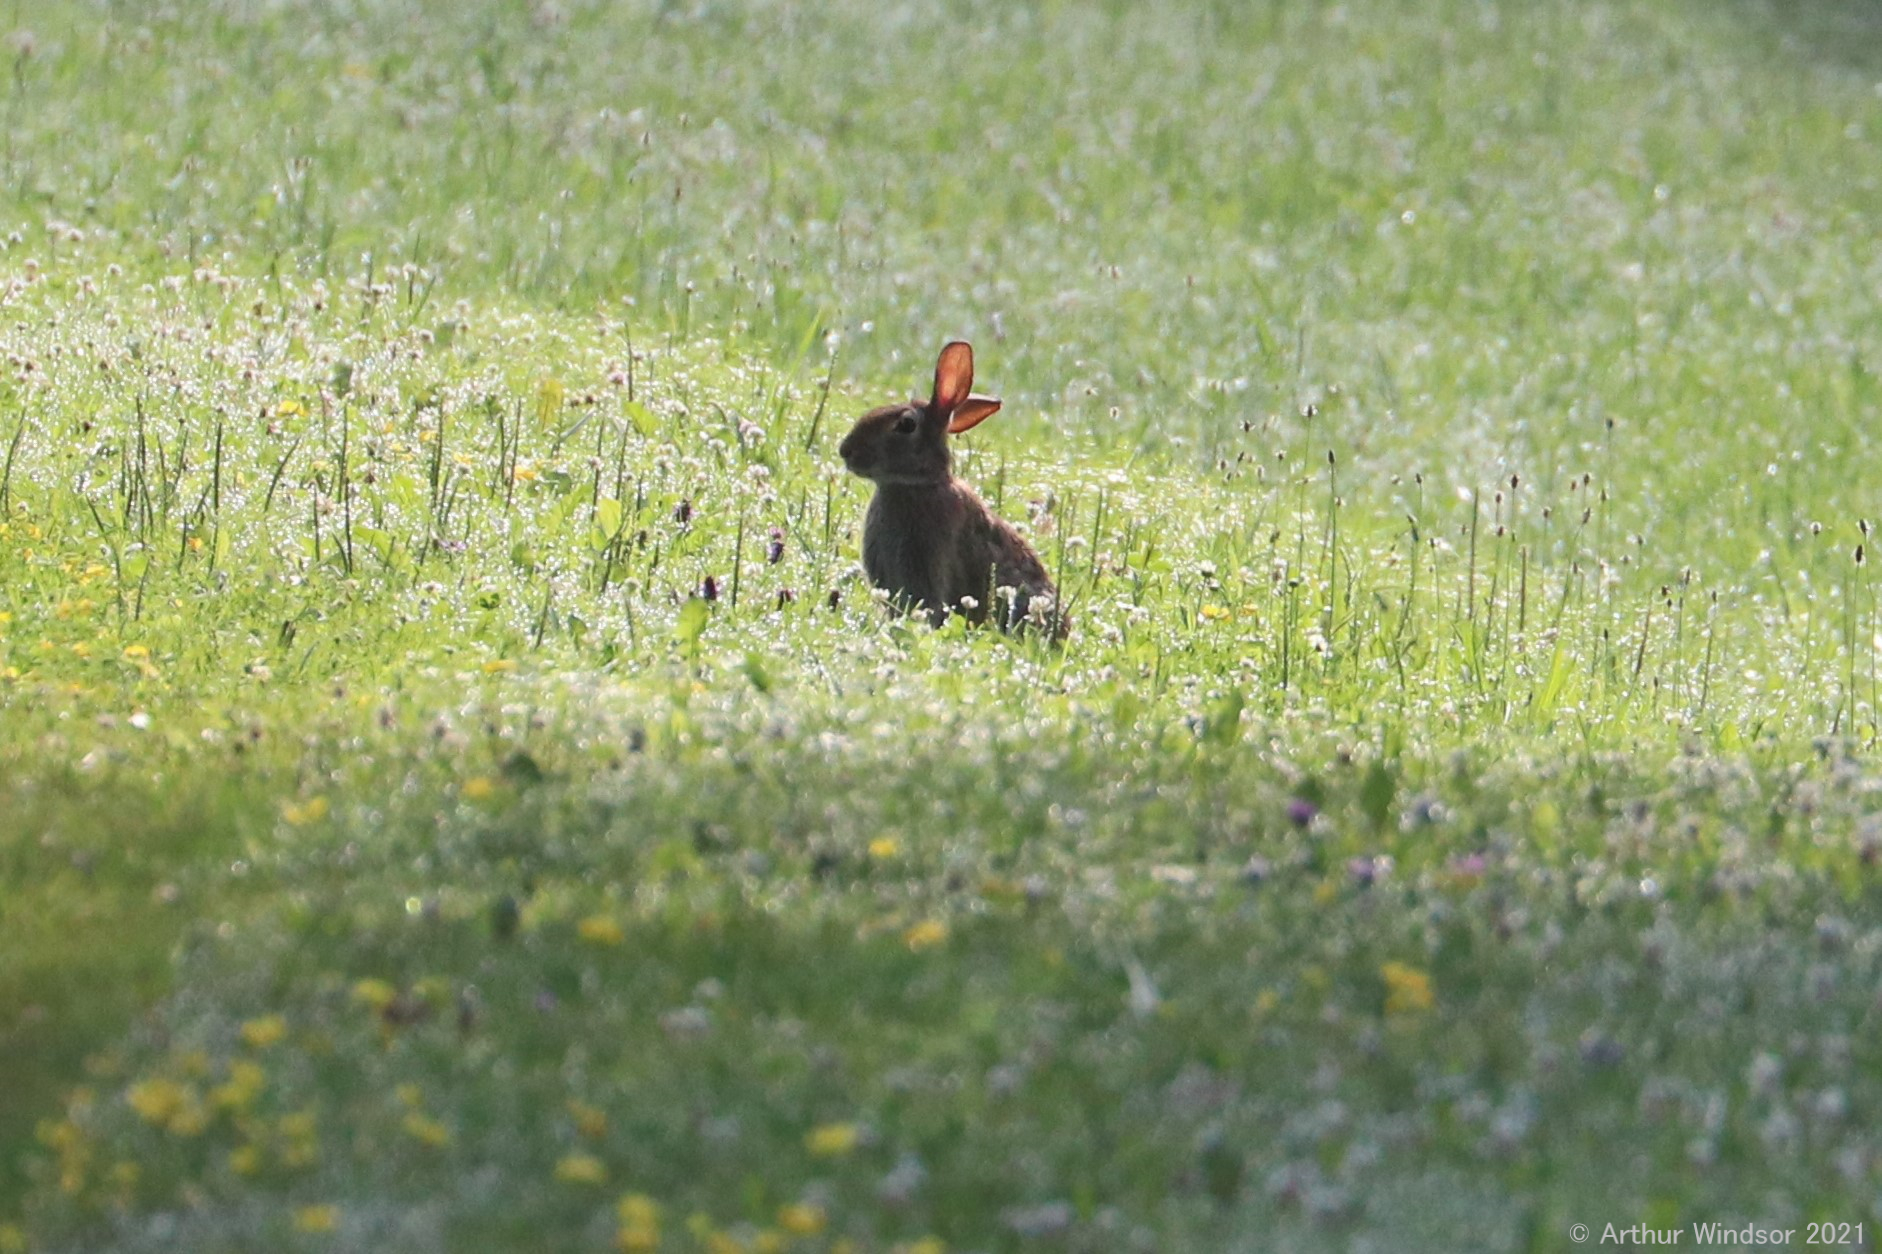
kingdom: Animalia
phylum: Chordata
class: Mammalia
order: Lagomorpha
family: Leporidae
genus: Sylvilagus
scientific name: Sylvilagus floridanus
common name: Eastern cottontail
